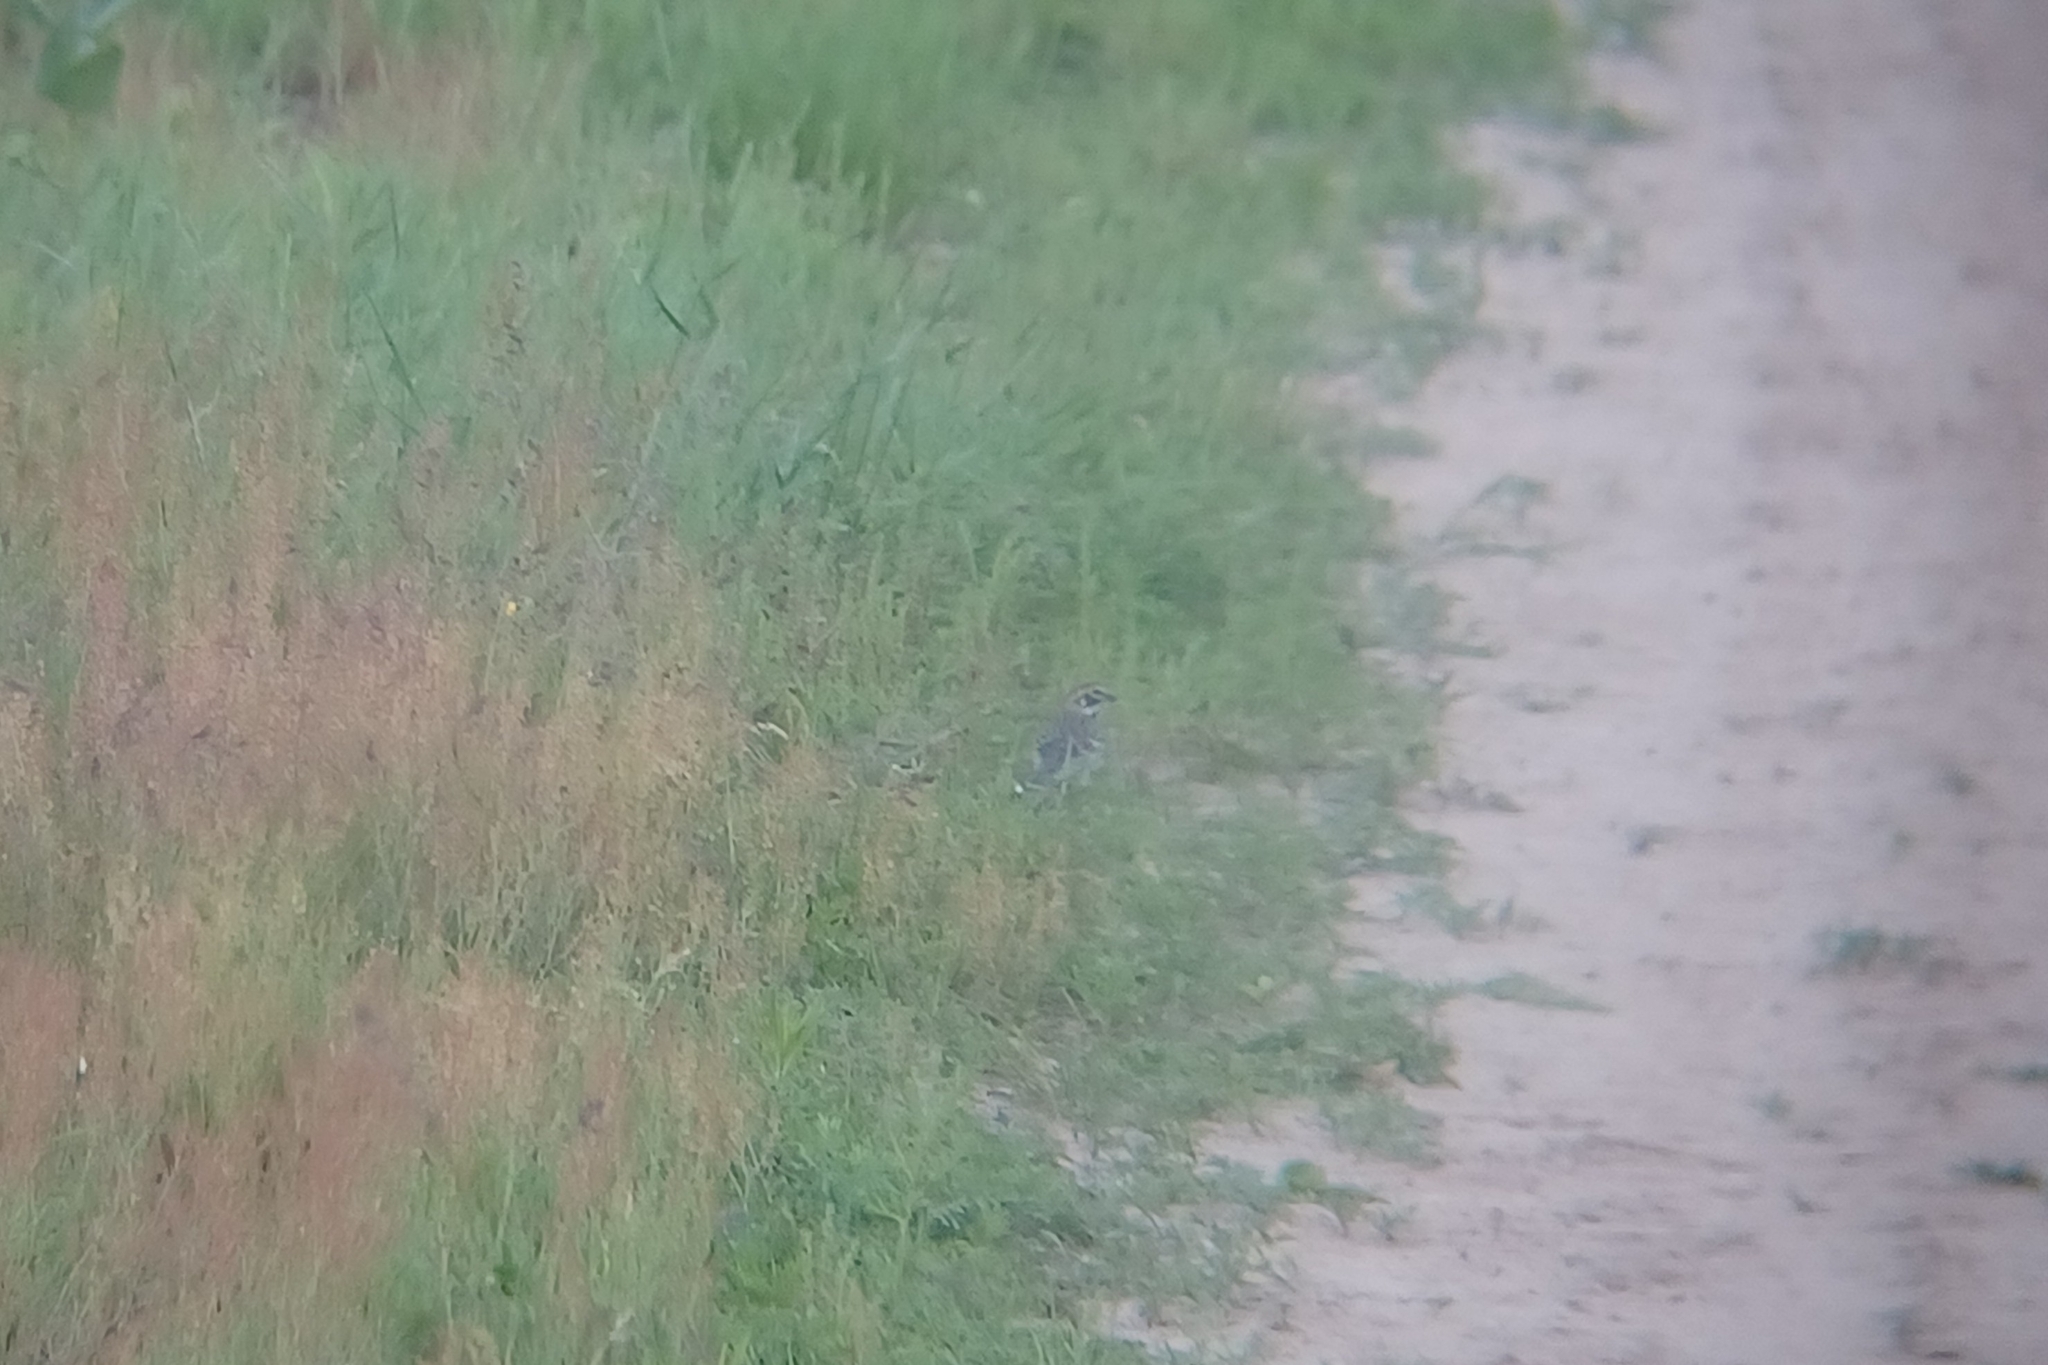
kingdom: Animalia
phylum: Chordata
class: Aves
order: Passeriformes
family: Passerellidae
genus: Chondestes
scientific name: Chondestes grammacus
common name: Lark sparrow
